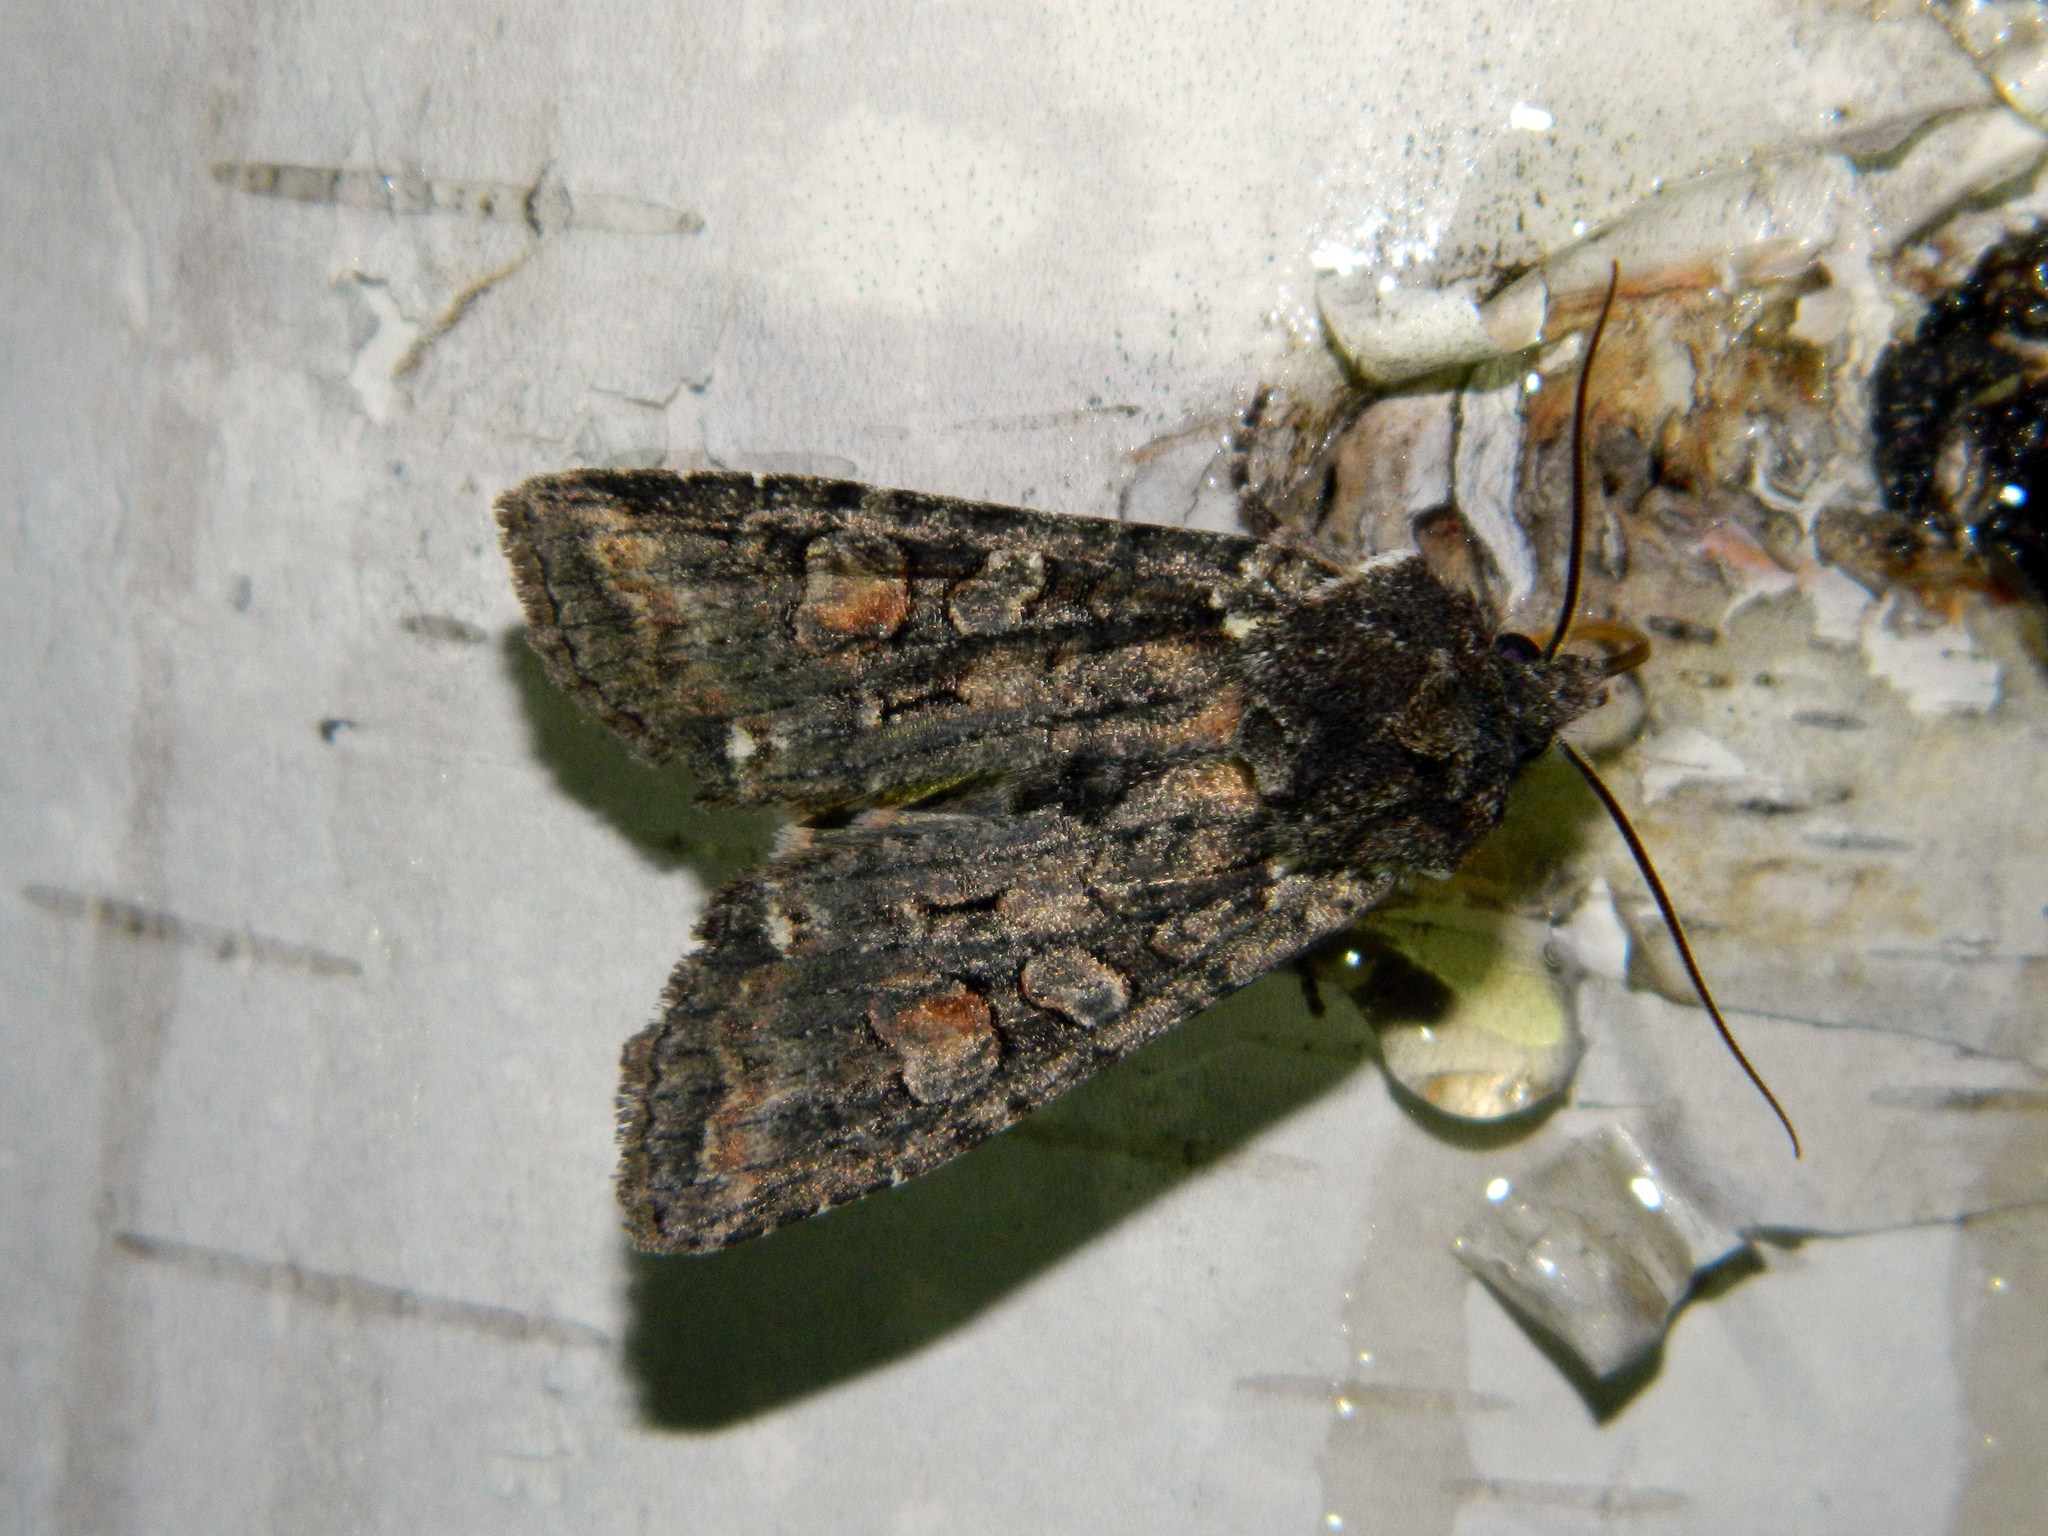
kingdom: Animalia
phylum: Arthropoda
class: Insecta
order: Lepidoptera
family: Noctuidae
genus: Lithophane
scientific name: Lithophane pexata
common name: Plush-naped pinion moth
